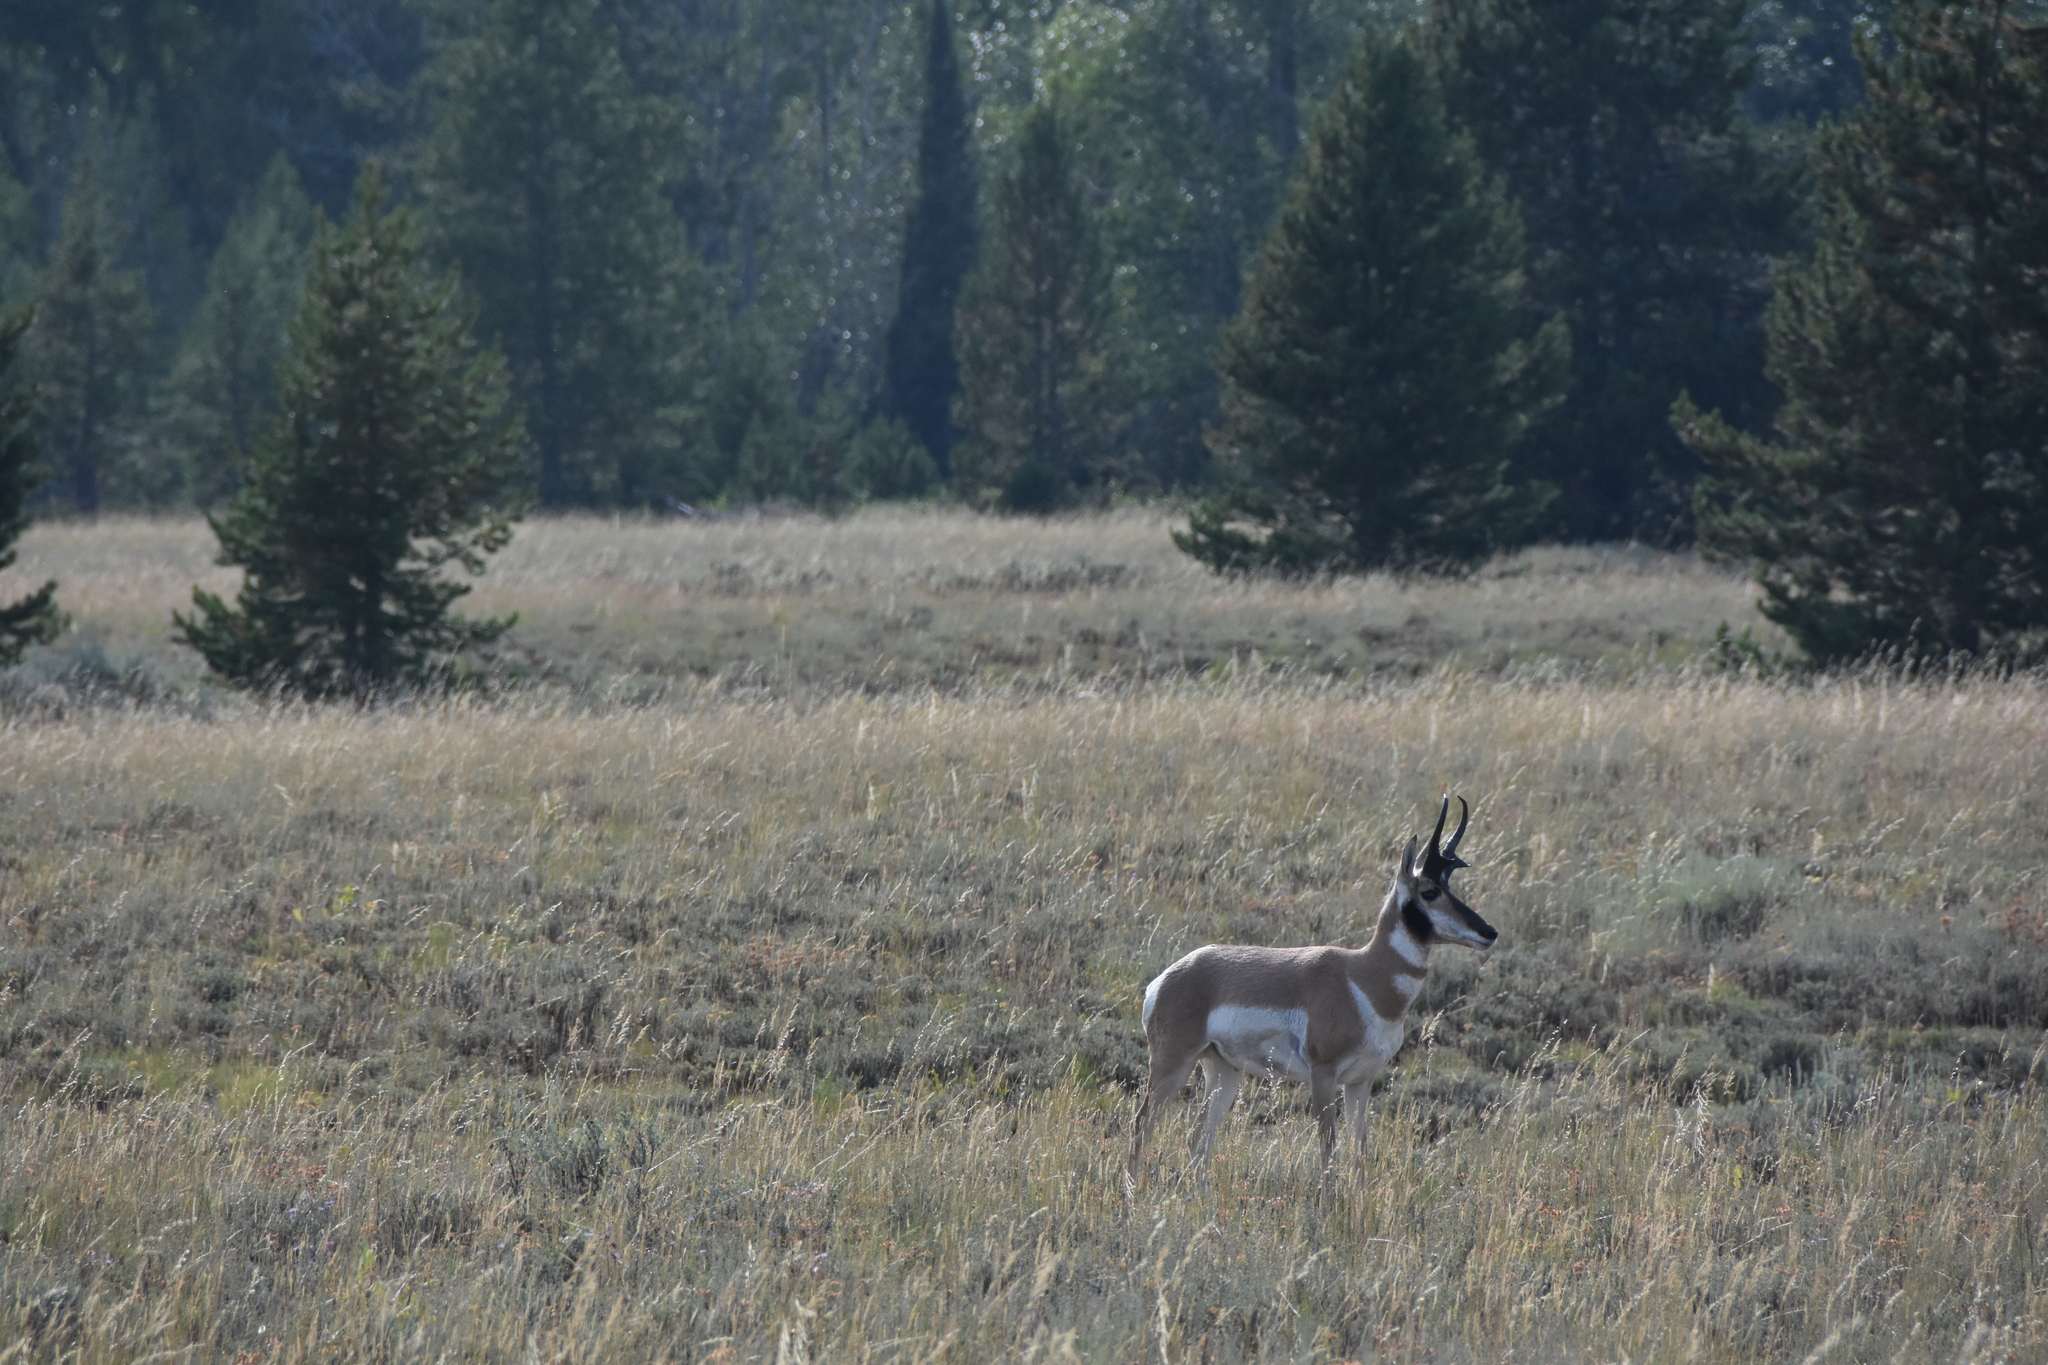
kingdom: Animalia
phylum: Chordata
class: Mammalia
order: Artiodactyla
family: Antilocapridae
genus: Antilocapra
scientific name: Antilocapra americana
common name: Pronghorn
